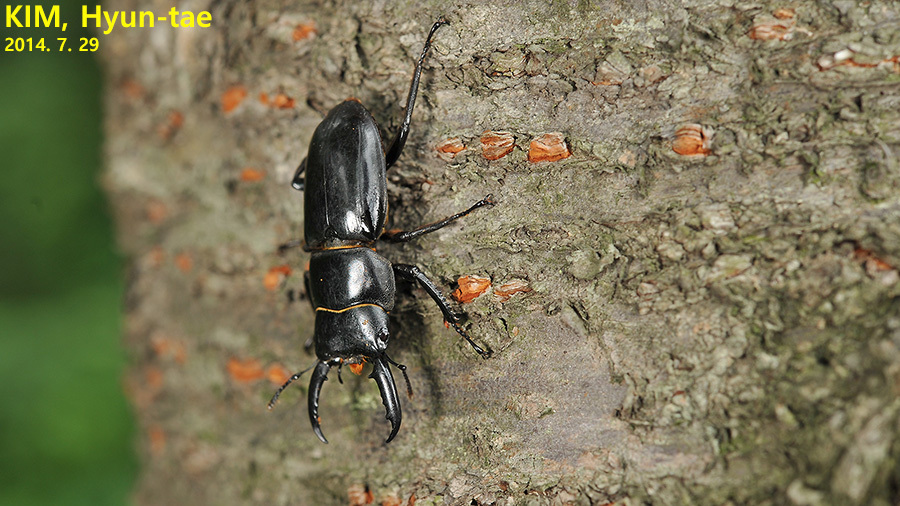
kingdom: Animalia
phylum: Arthropoda
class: Insecta
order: Coleoptera
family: Lucanidae
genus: Serrognathus
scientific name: Serrognathus consentaneus
